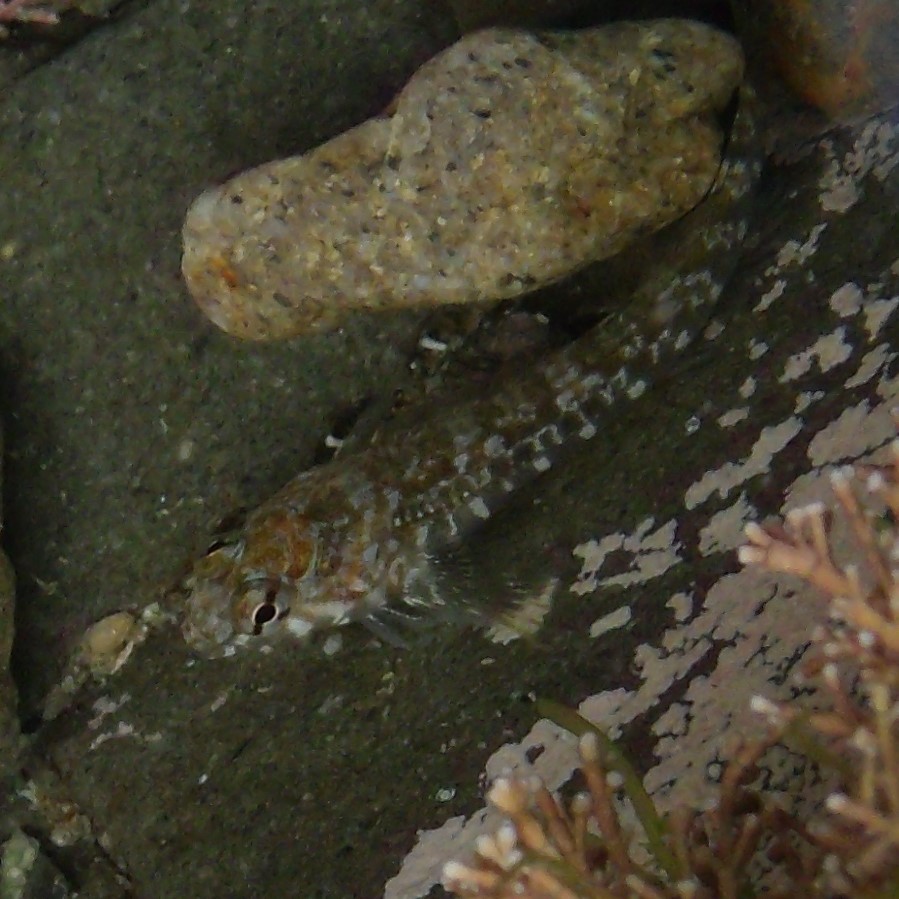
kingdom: Animalia
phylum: Chordata
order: Perciformes
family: Tripterygiidae
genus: Bellapiscis
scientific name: Bellapiscis medius
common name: Twister
